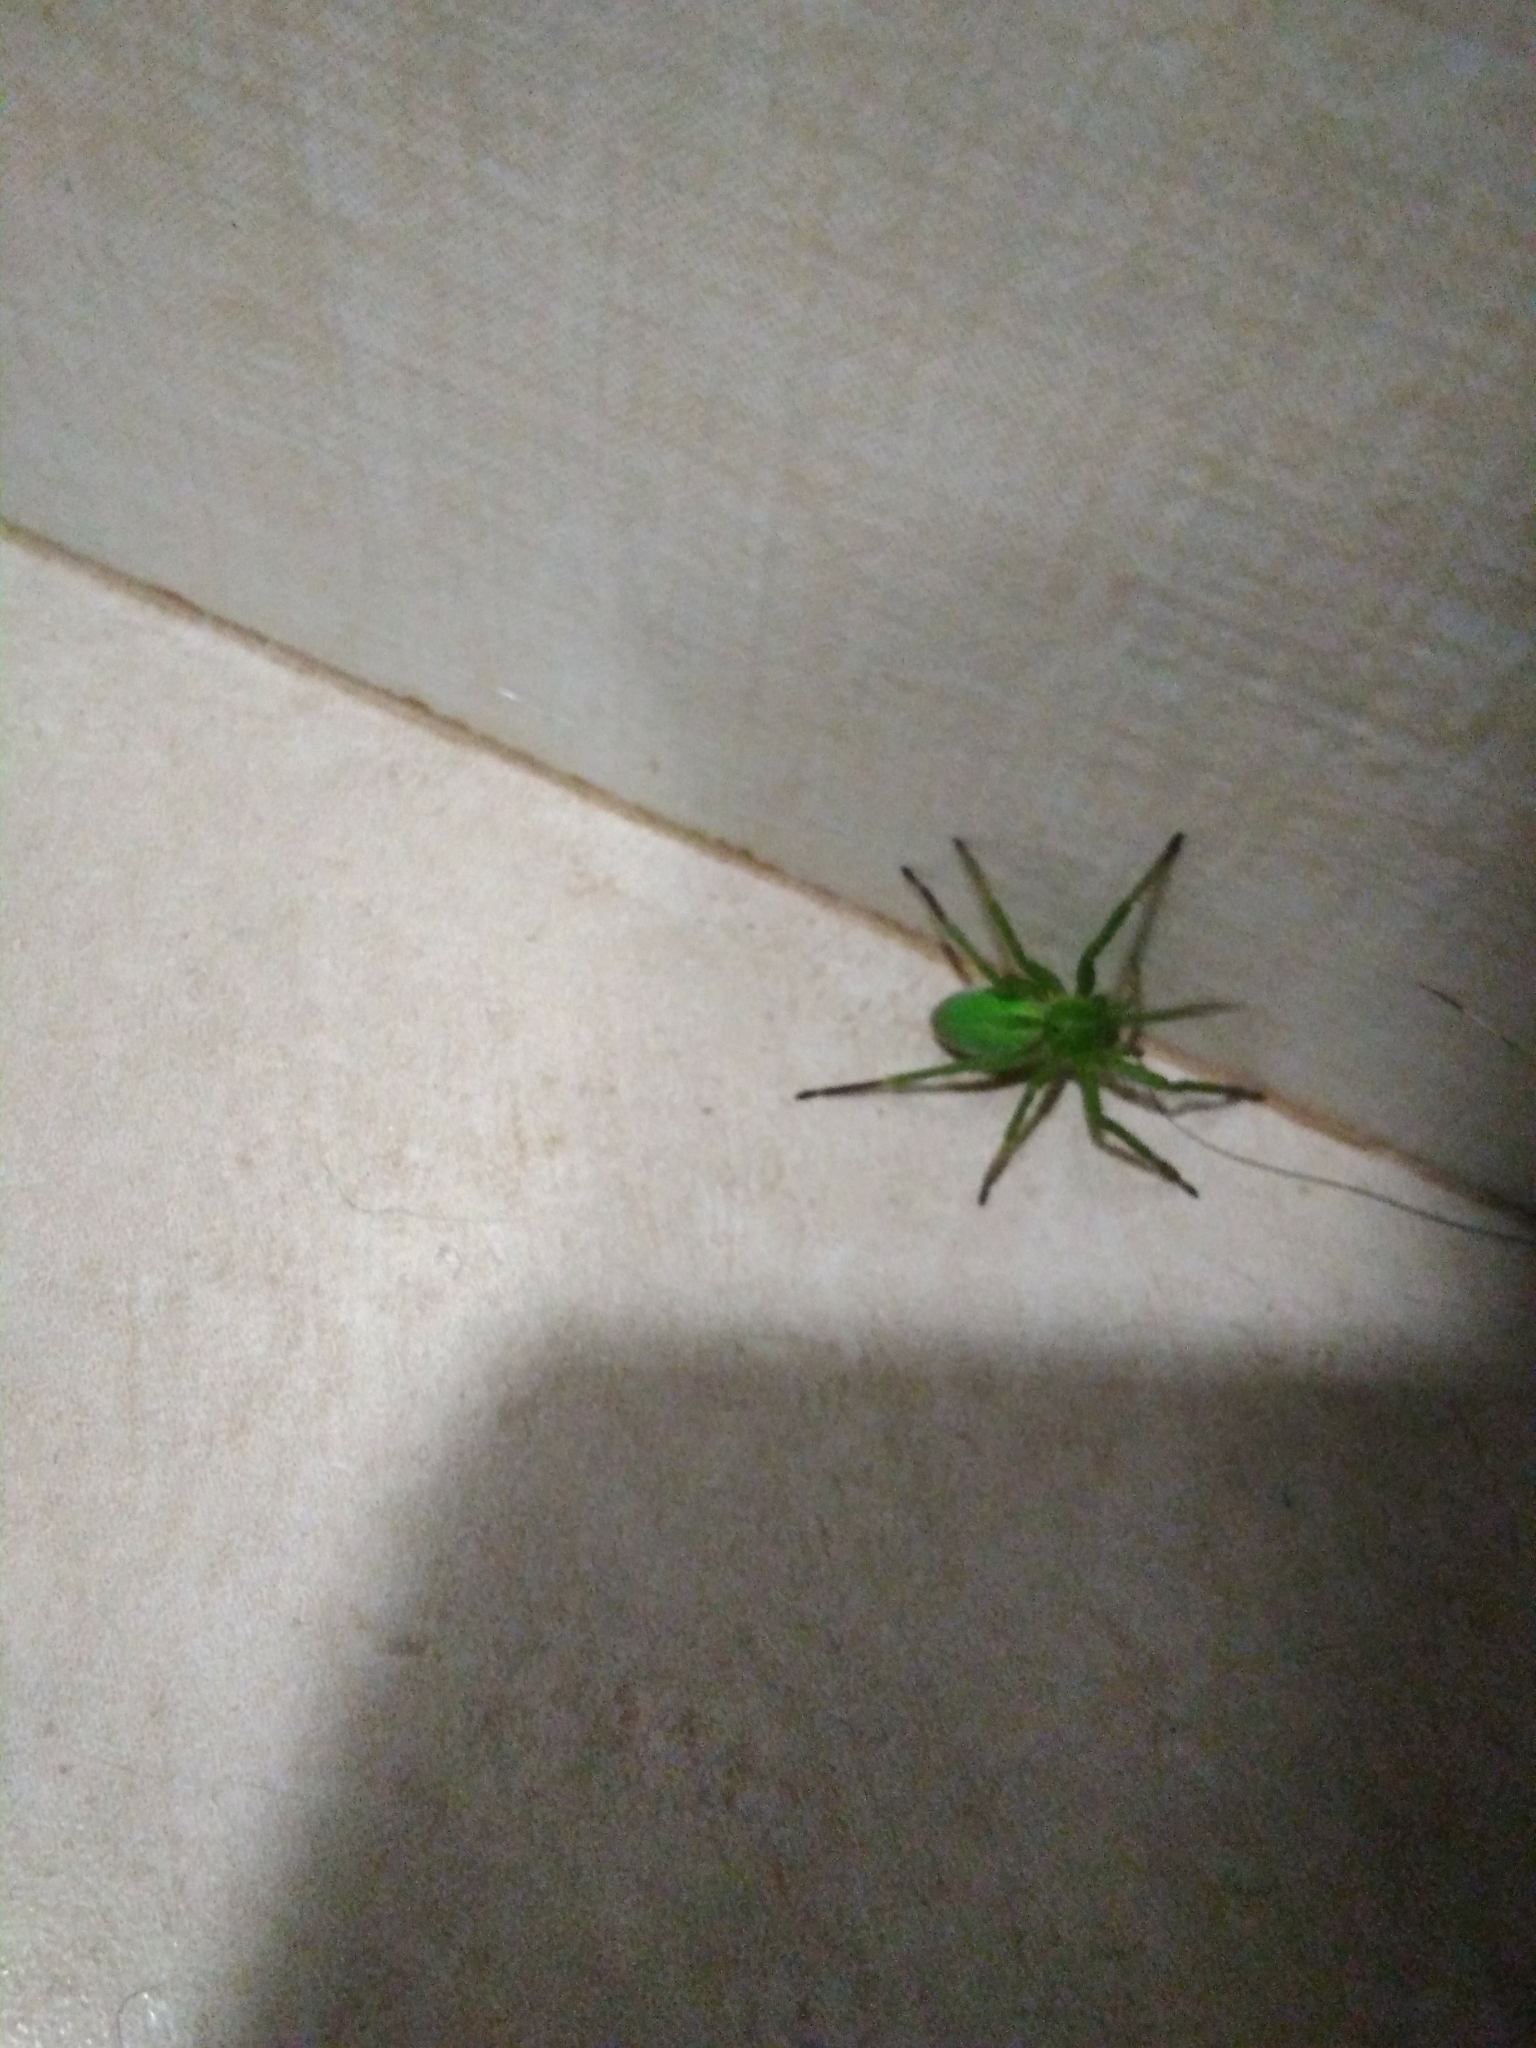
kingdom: Animalia
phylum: Arthropoda
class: Arachnida
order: Araneae
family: Sparassidae
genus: Micrommata
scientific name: Micrommata ligurina
